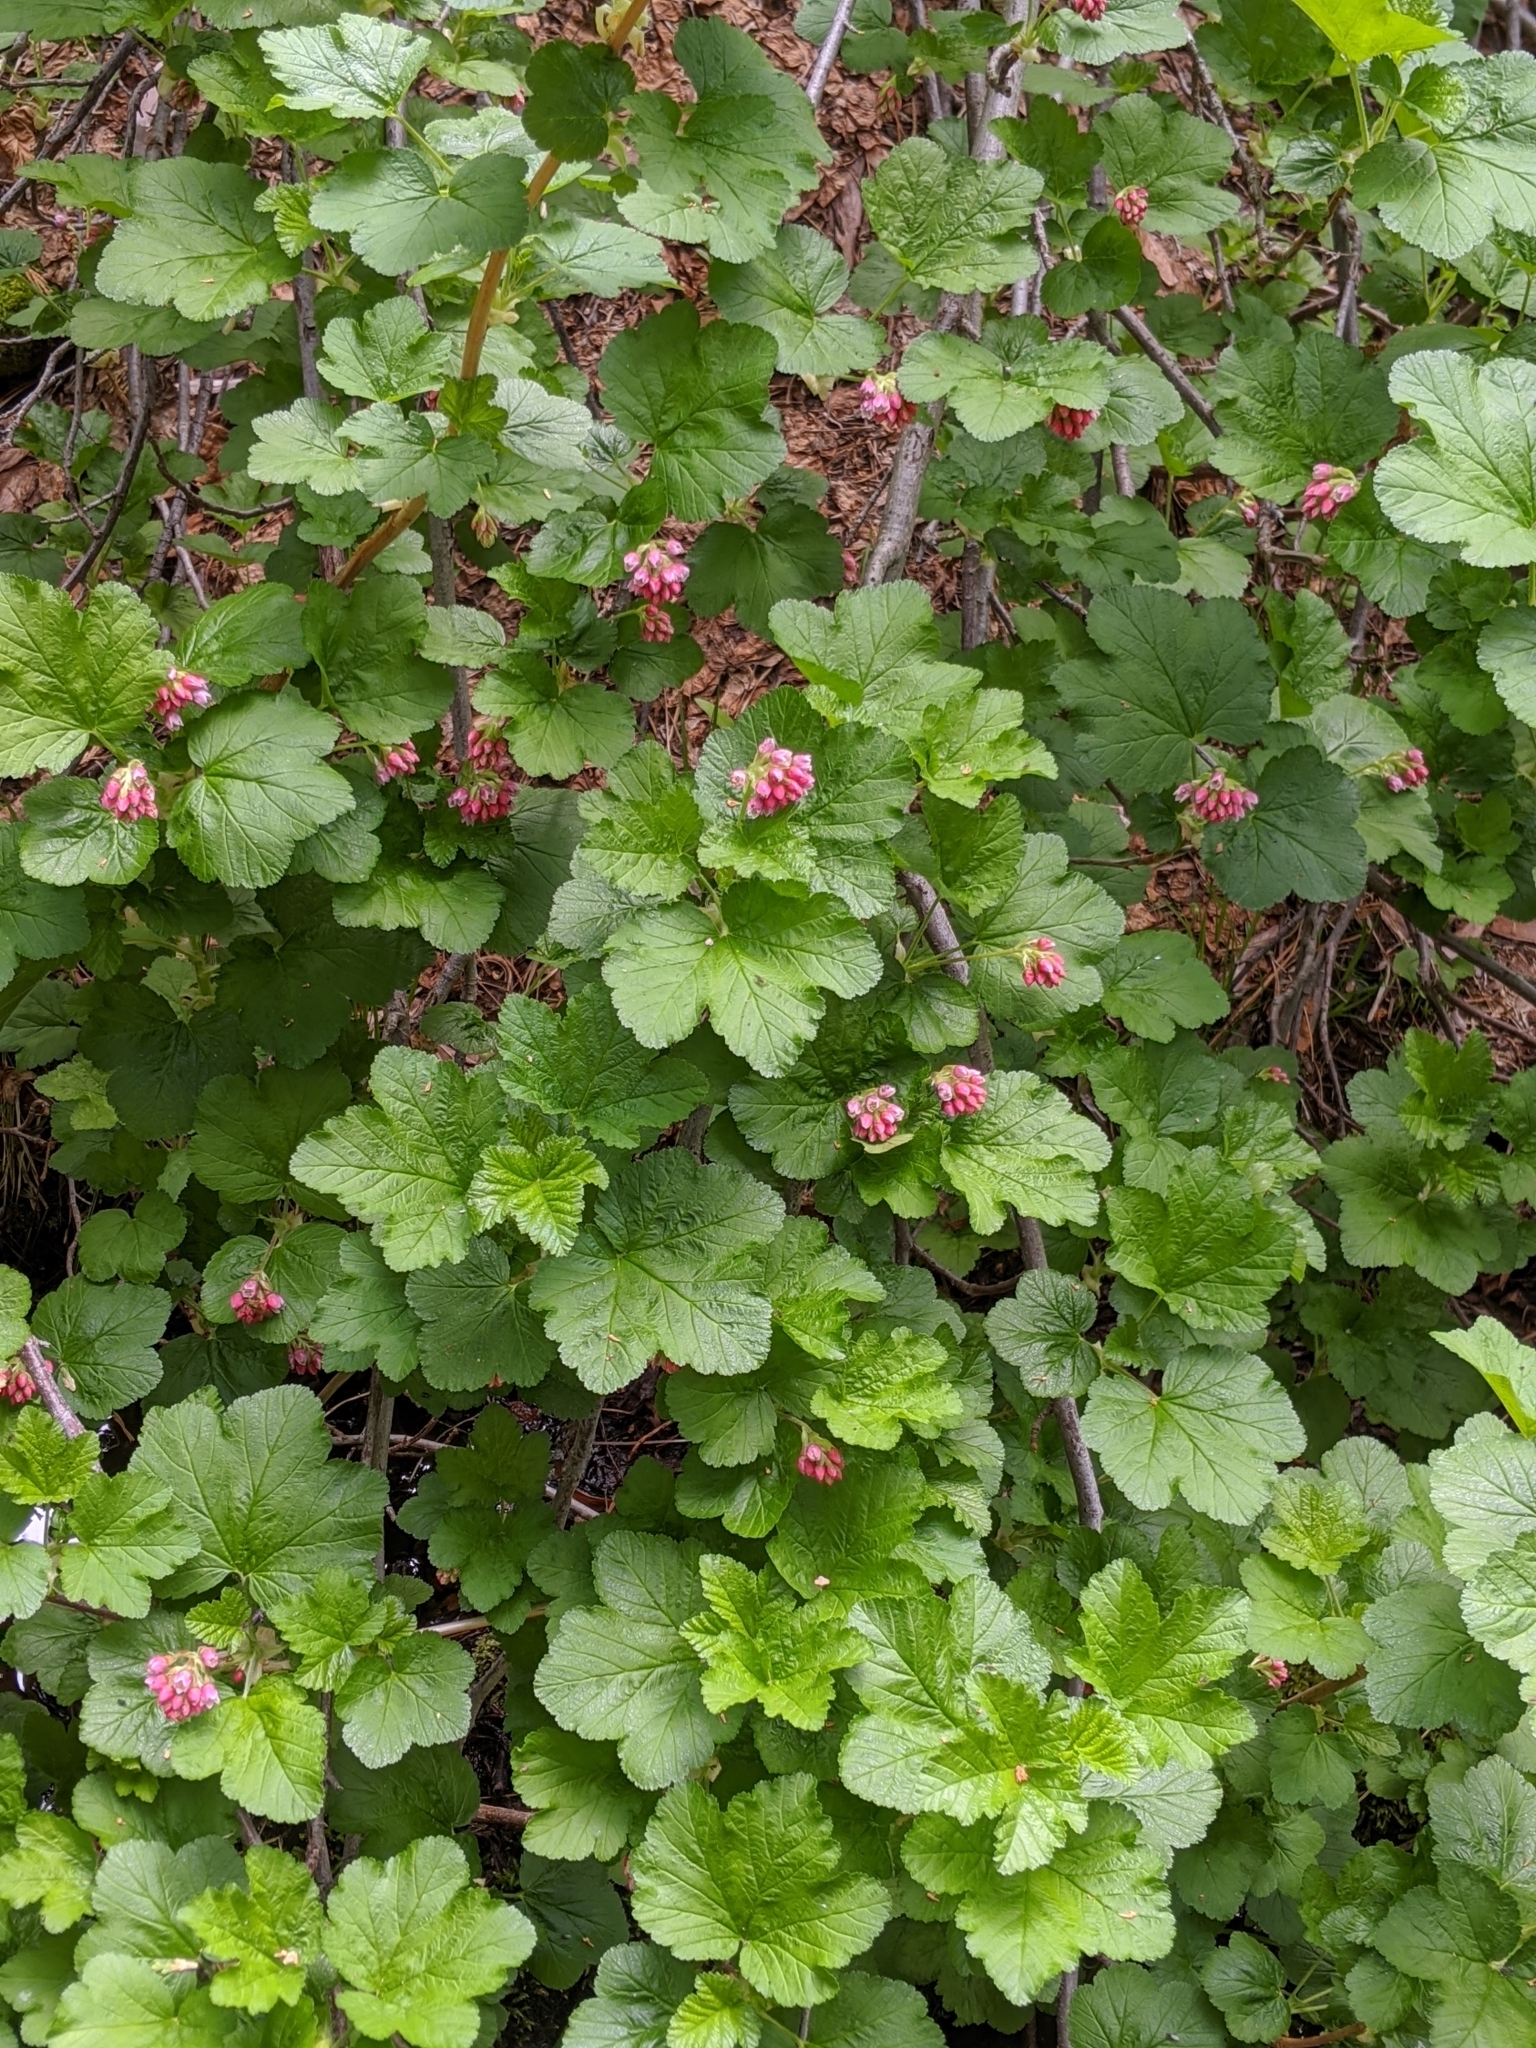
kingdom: Plantae
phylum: Tracheophyta
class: Magnoliopsida
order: Saxifragales
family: Grossulariaceae
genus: Ribes
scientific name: Ribes nevadense
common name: Mountain pink currant
